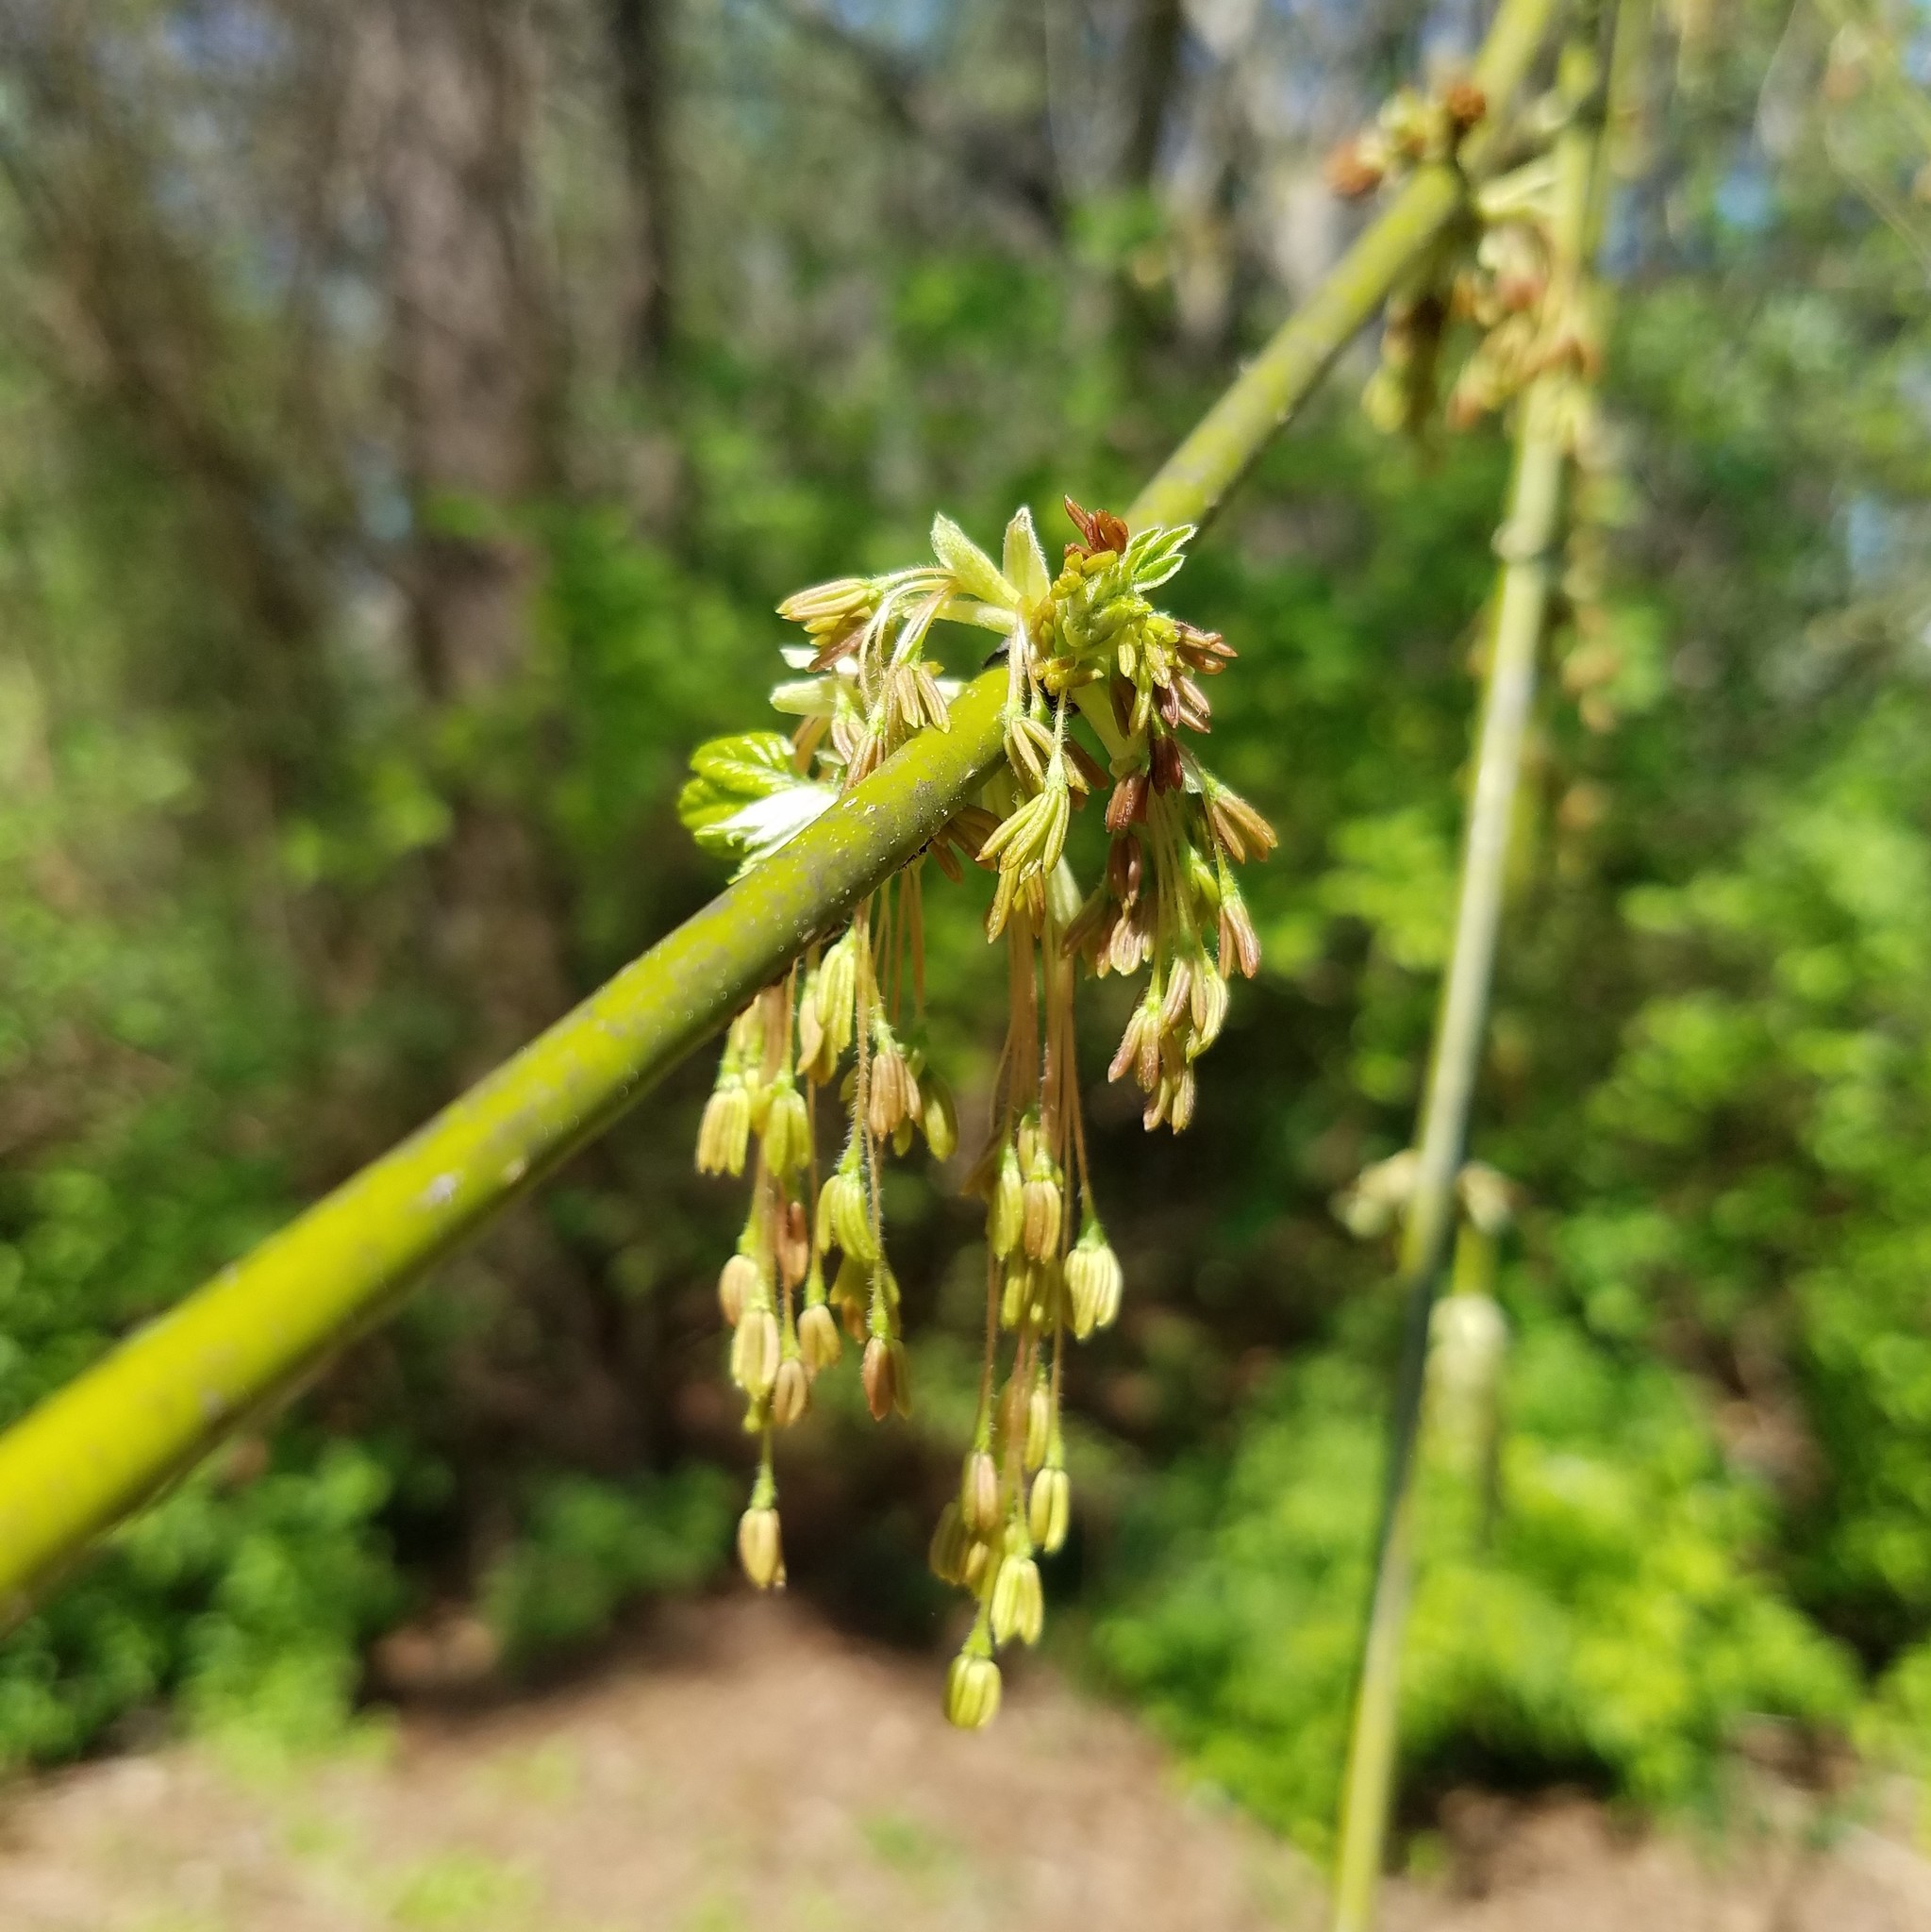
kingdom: Plantae
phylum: Tracheophyta
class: Magnoliopsida
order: Sapindales
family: Sapindaceae
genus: Acer
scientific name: Acer negundo
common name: Ashleaf maple
